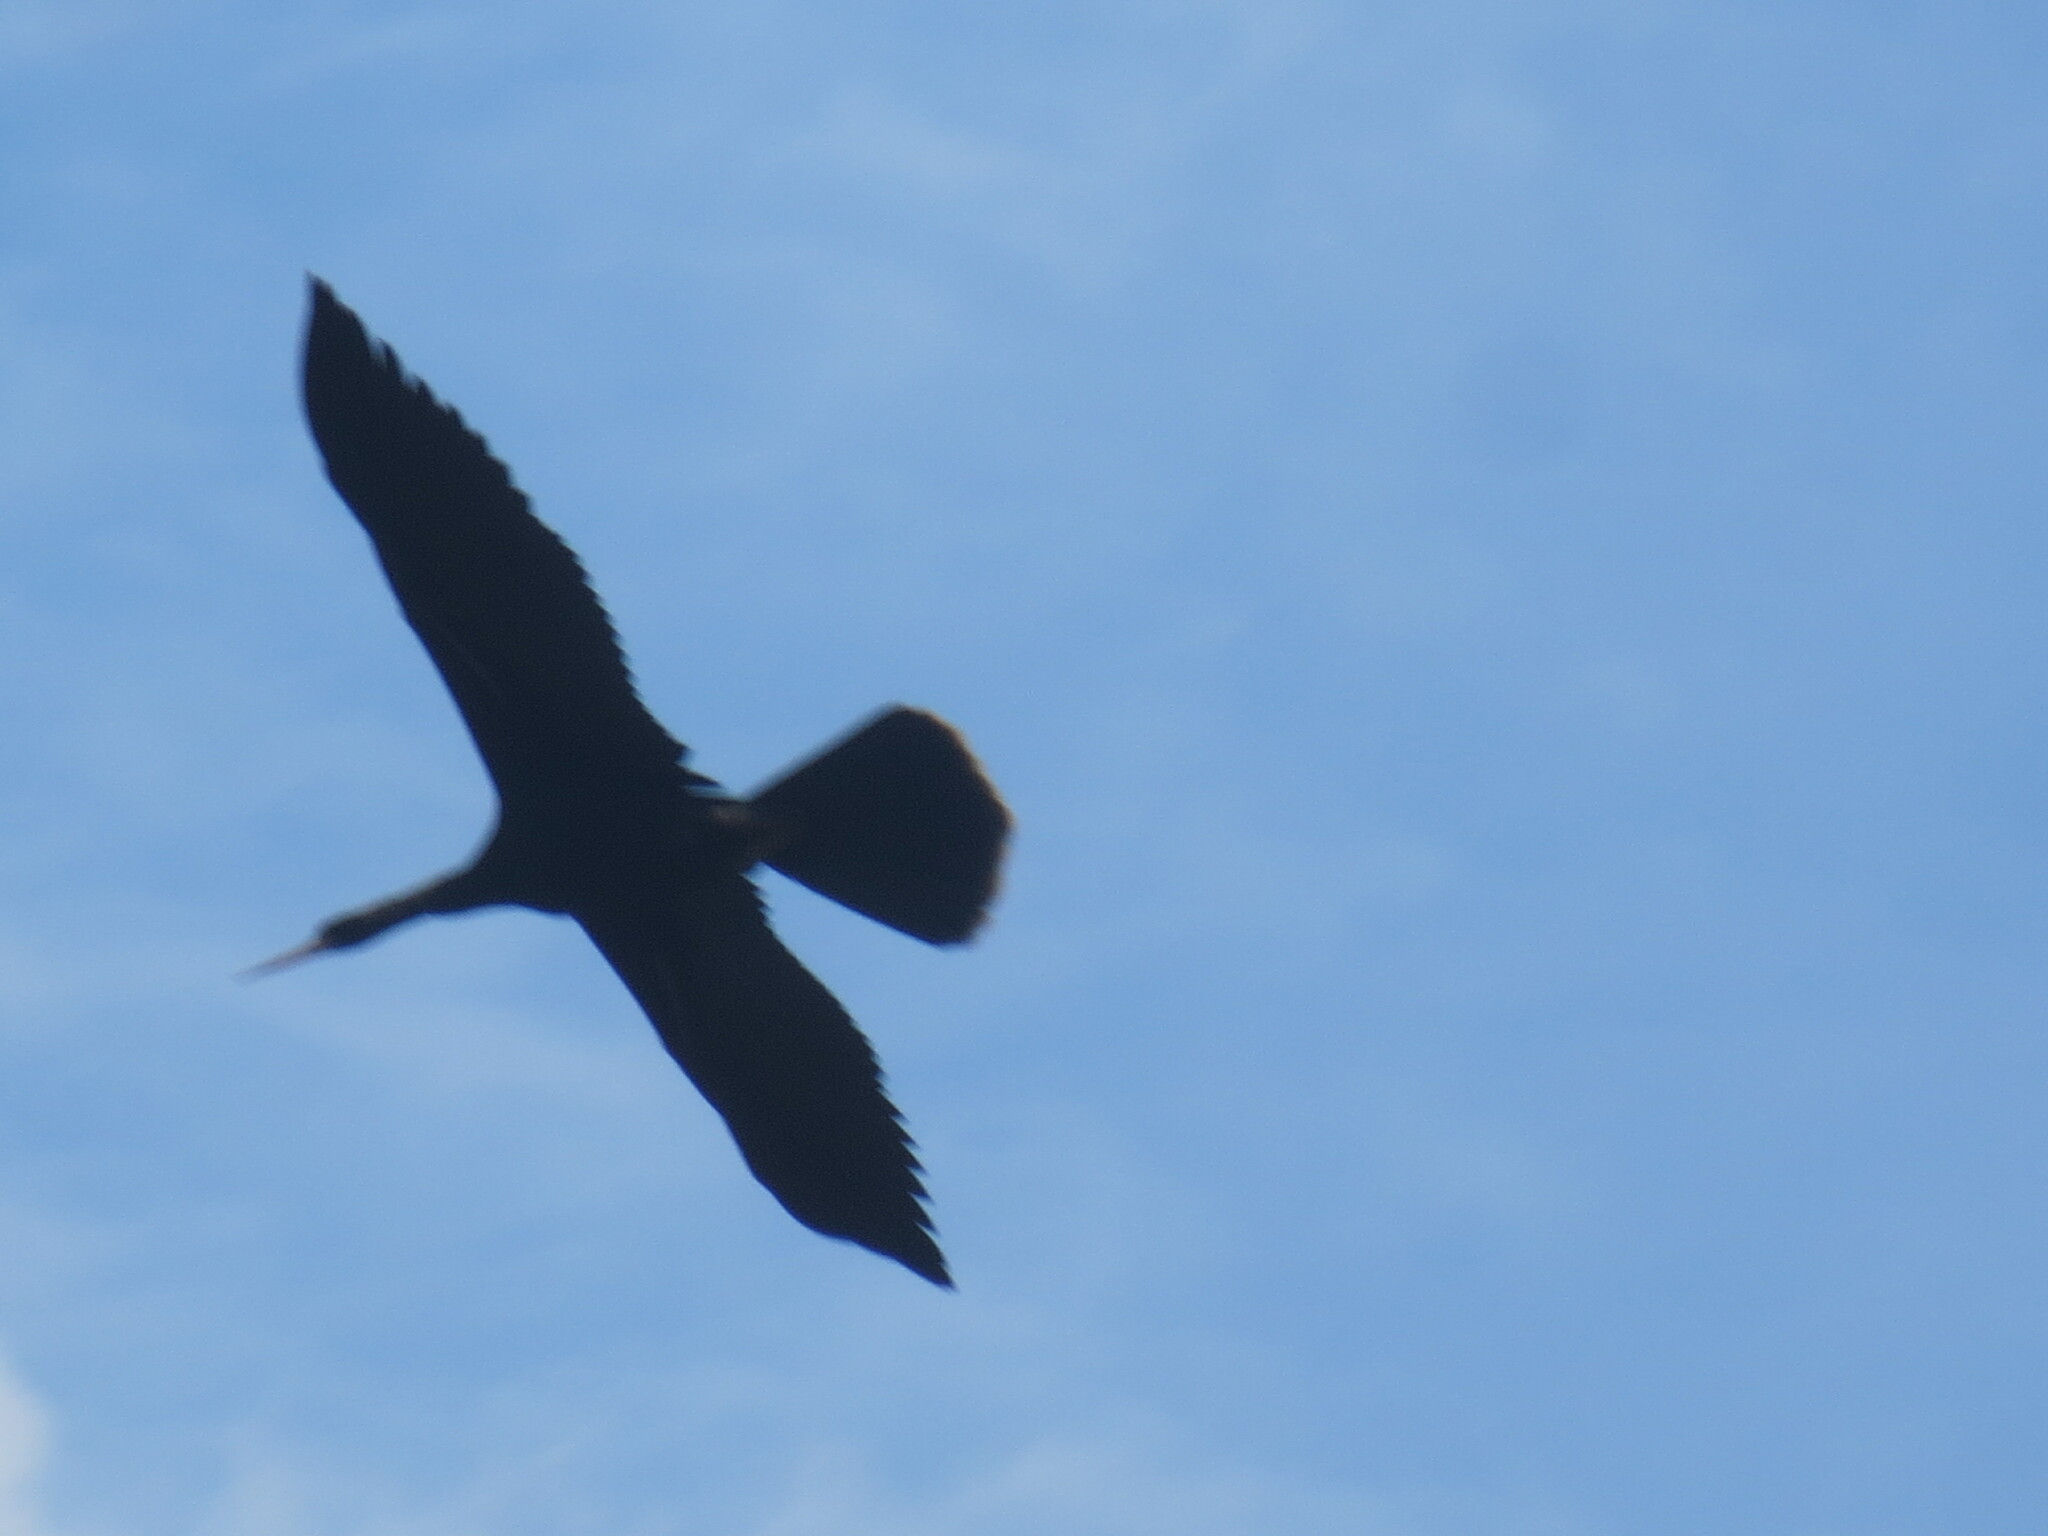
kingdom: Animalia
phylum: Chordata
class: Aves
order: Suliformes
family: Anhingidae
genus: Anhinga
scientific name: Anhinga anhinga
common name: Anhinga
